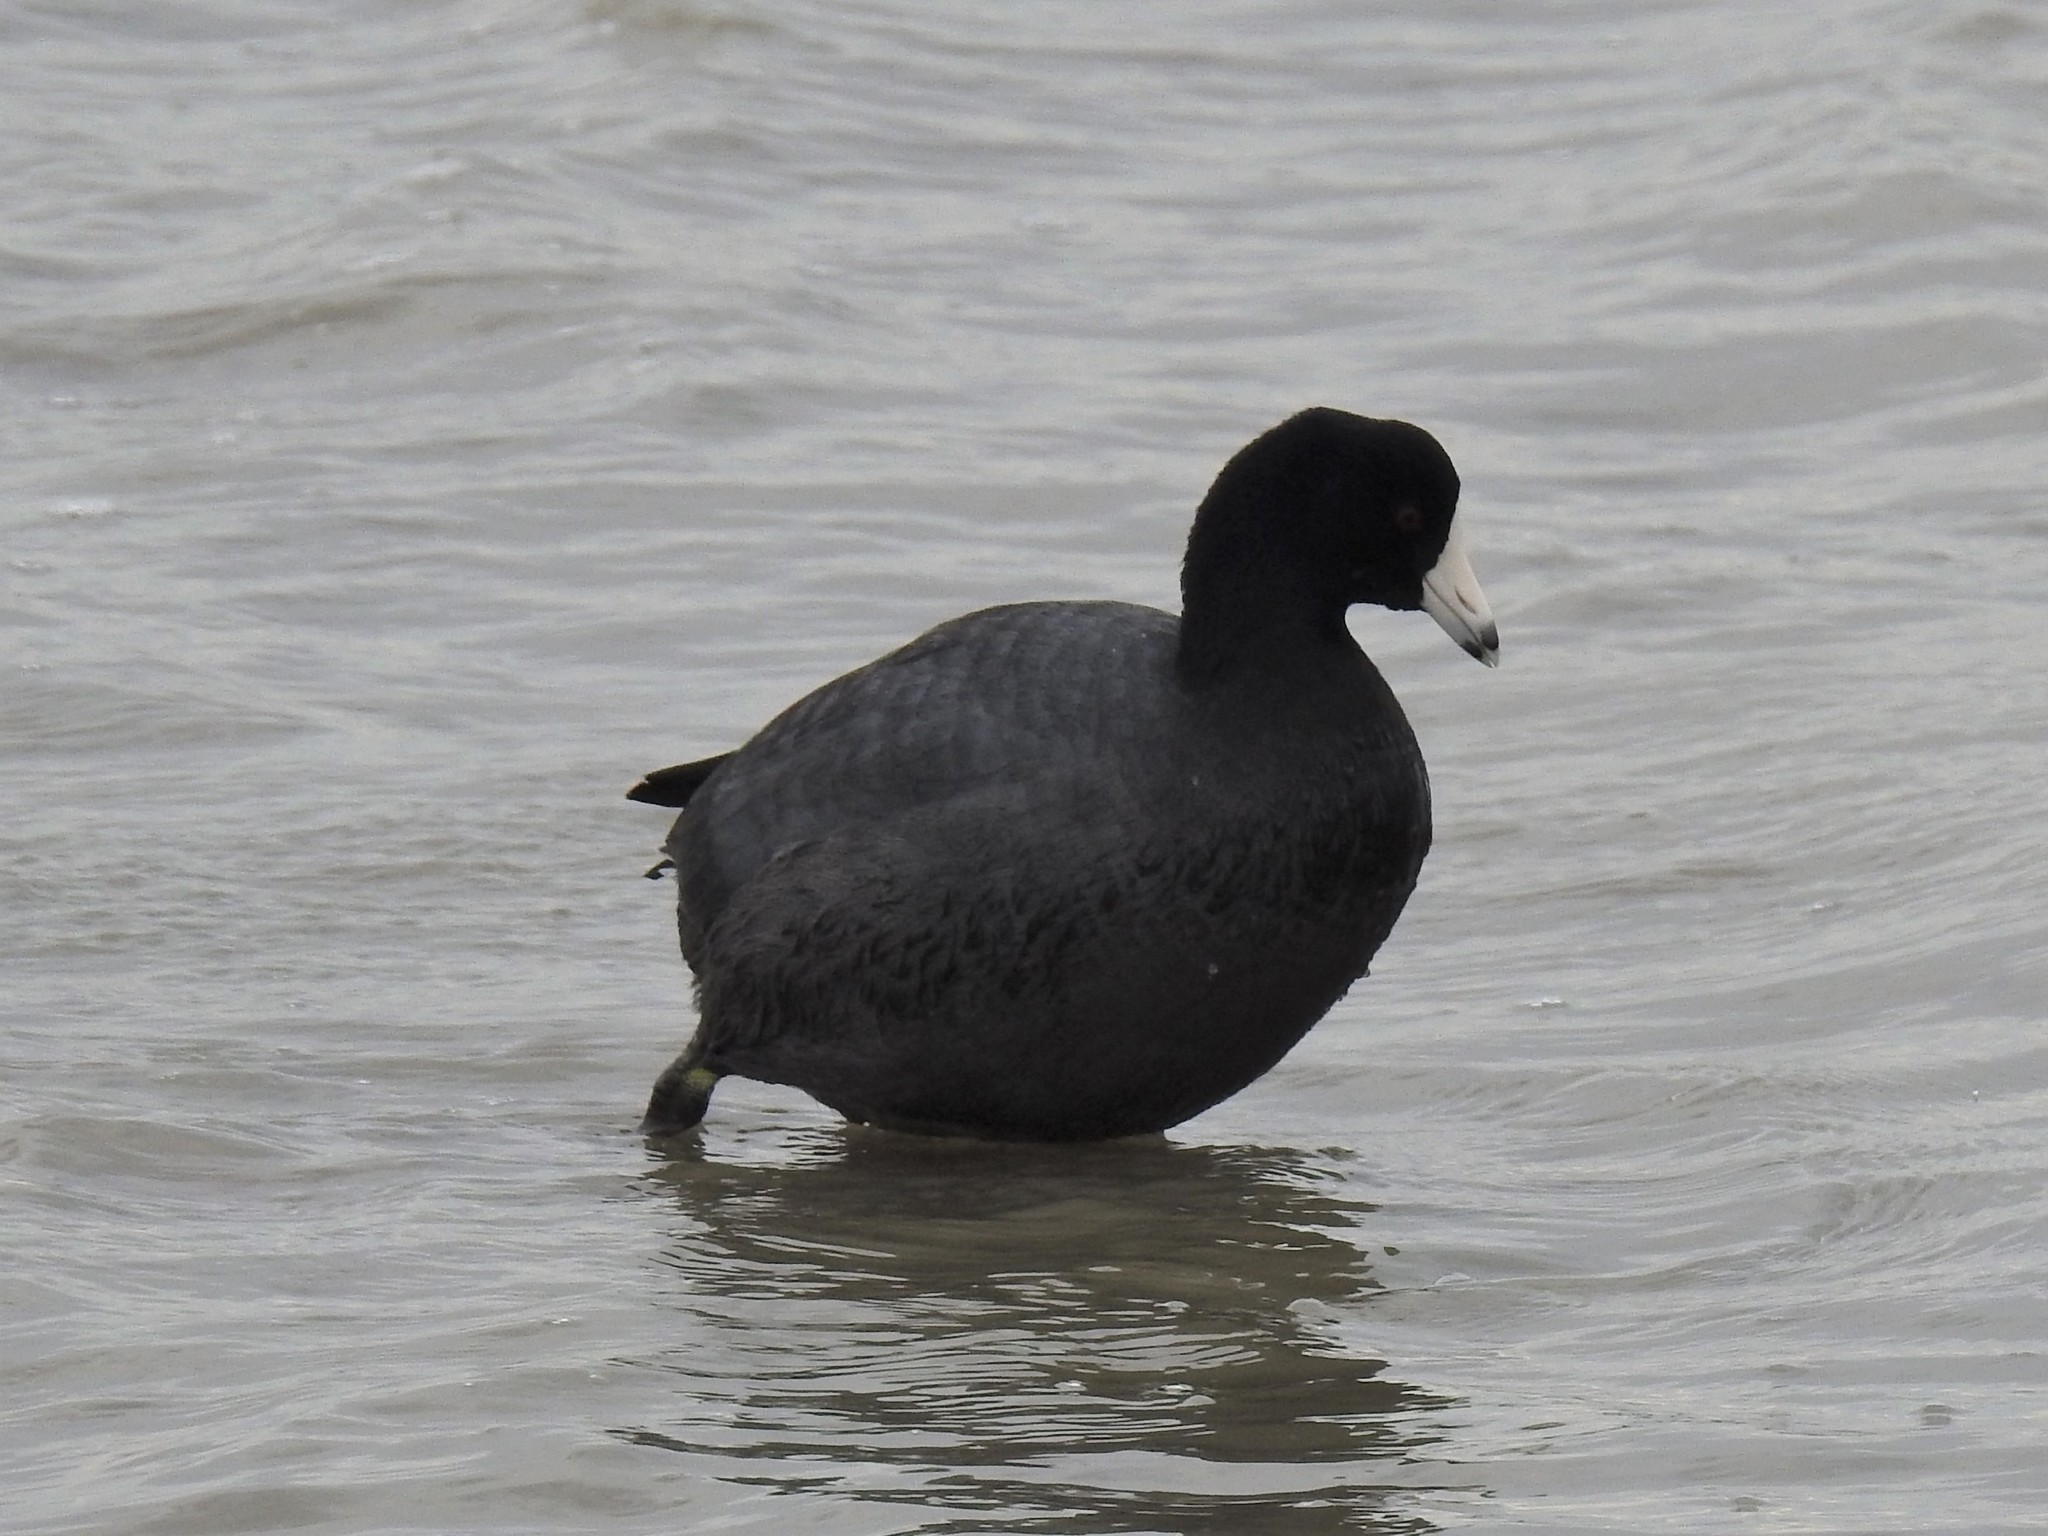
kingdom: Animalia
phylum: Chordata
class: Aves
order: Gruiformes
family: Rallidae
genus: Fulica
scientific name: Fulica americana
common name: American coot
